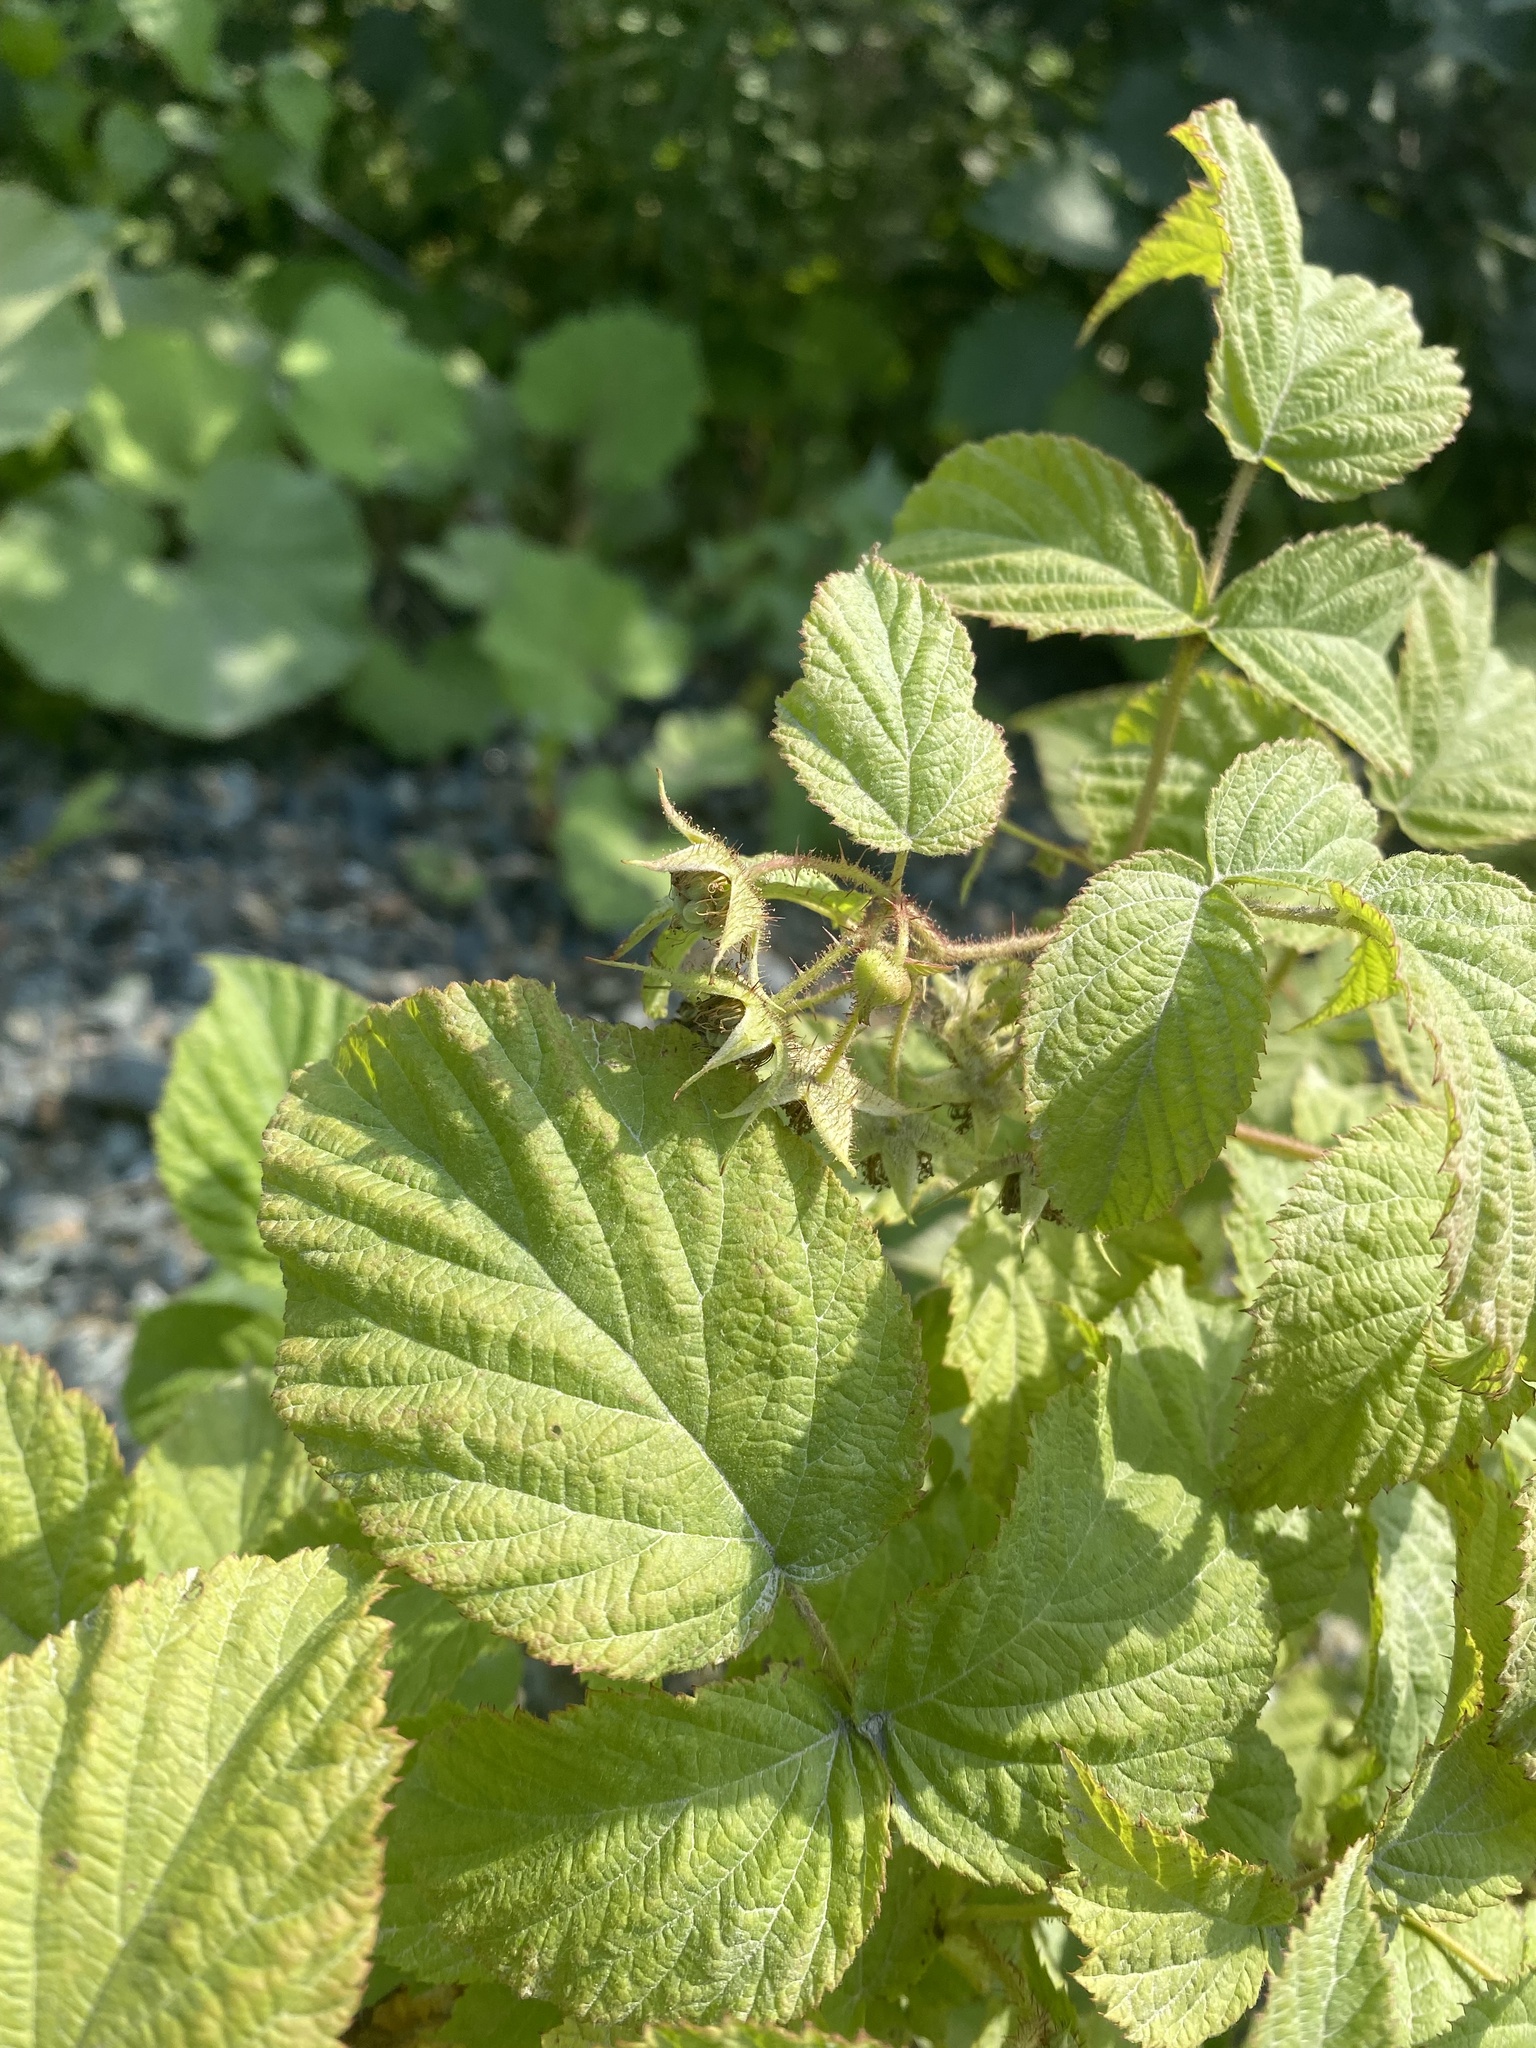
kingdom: Plantae
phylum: Tracheophyta
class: Magnoliopsida
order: Rosales
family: Rosaceae
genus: Rubus
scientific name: Rubus sachalinensis
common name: Red raspberry
